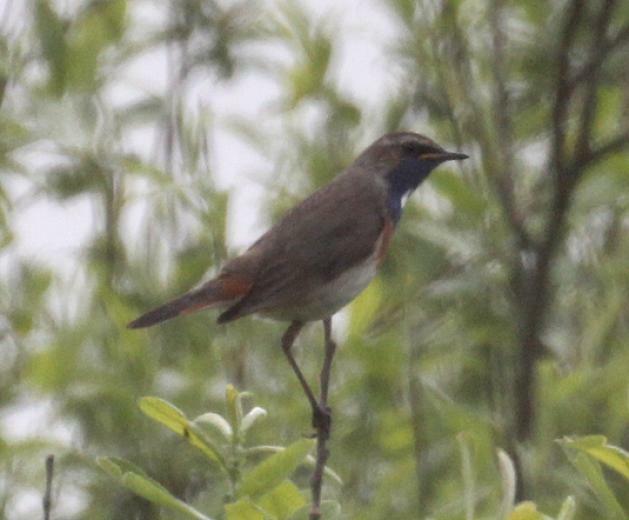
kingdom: Animalia
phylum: Chordata
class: Aves
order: Passeriformes
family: Muscicapidae
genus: Luscinia
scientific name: Luscinia svecica
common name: Bluethroat
